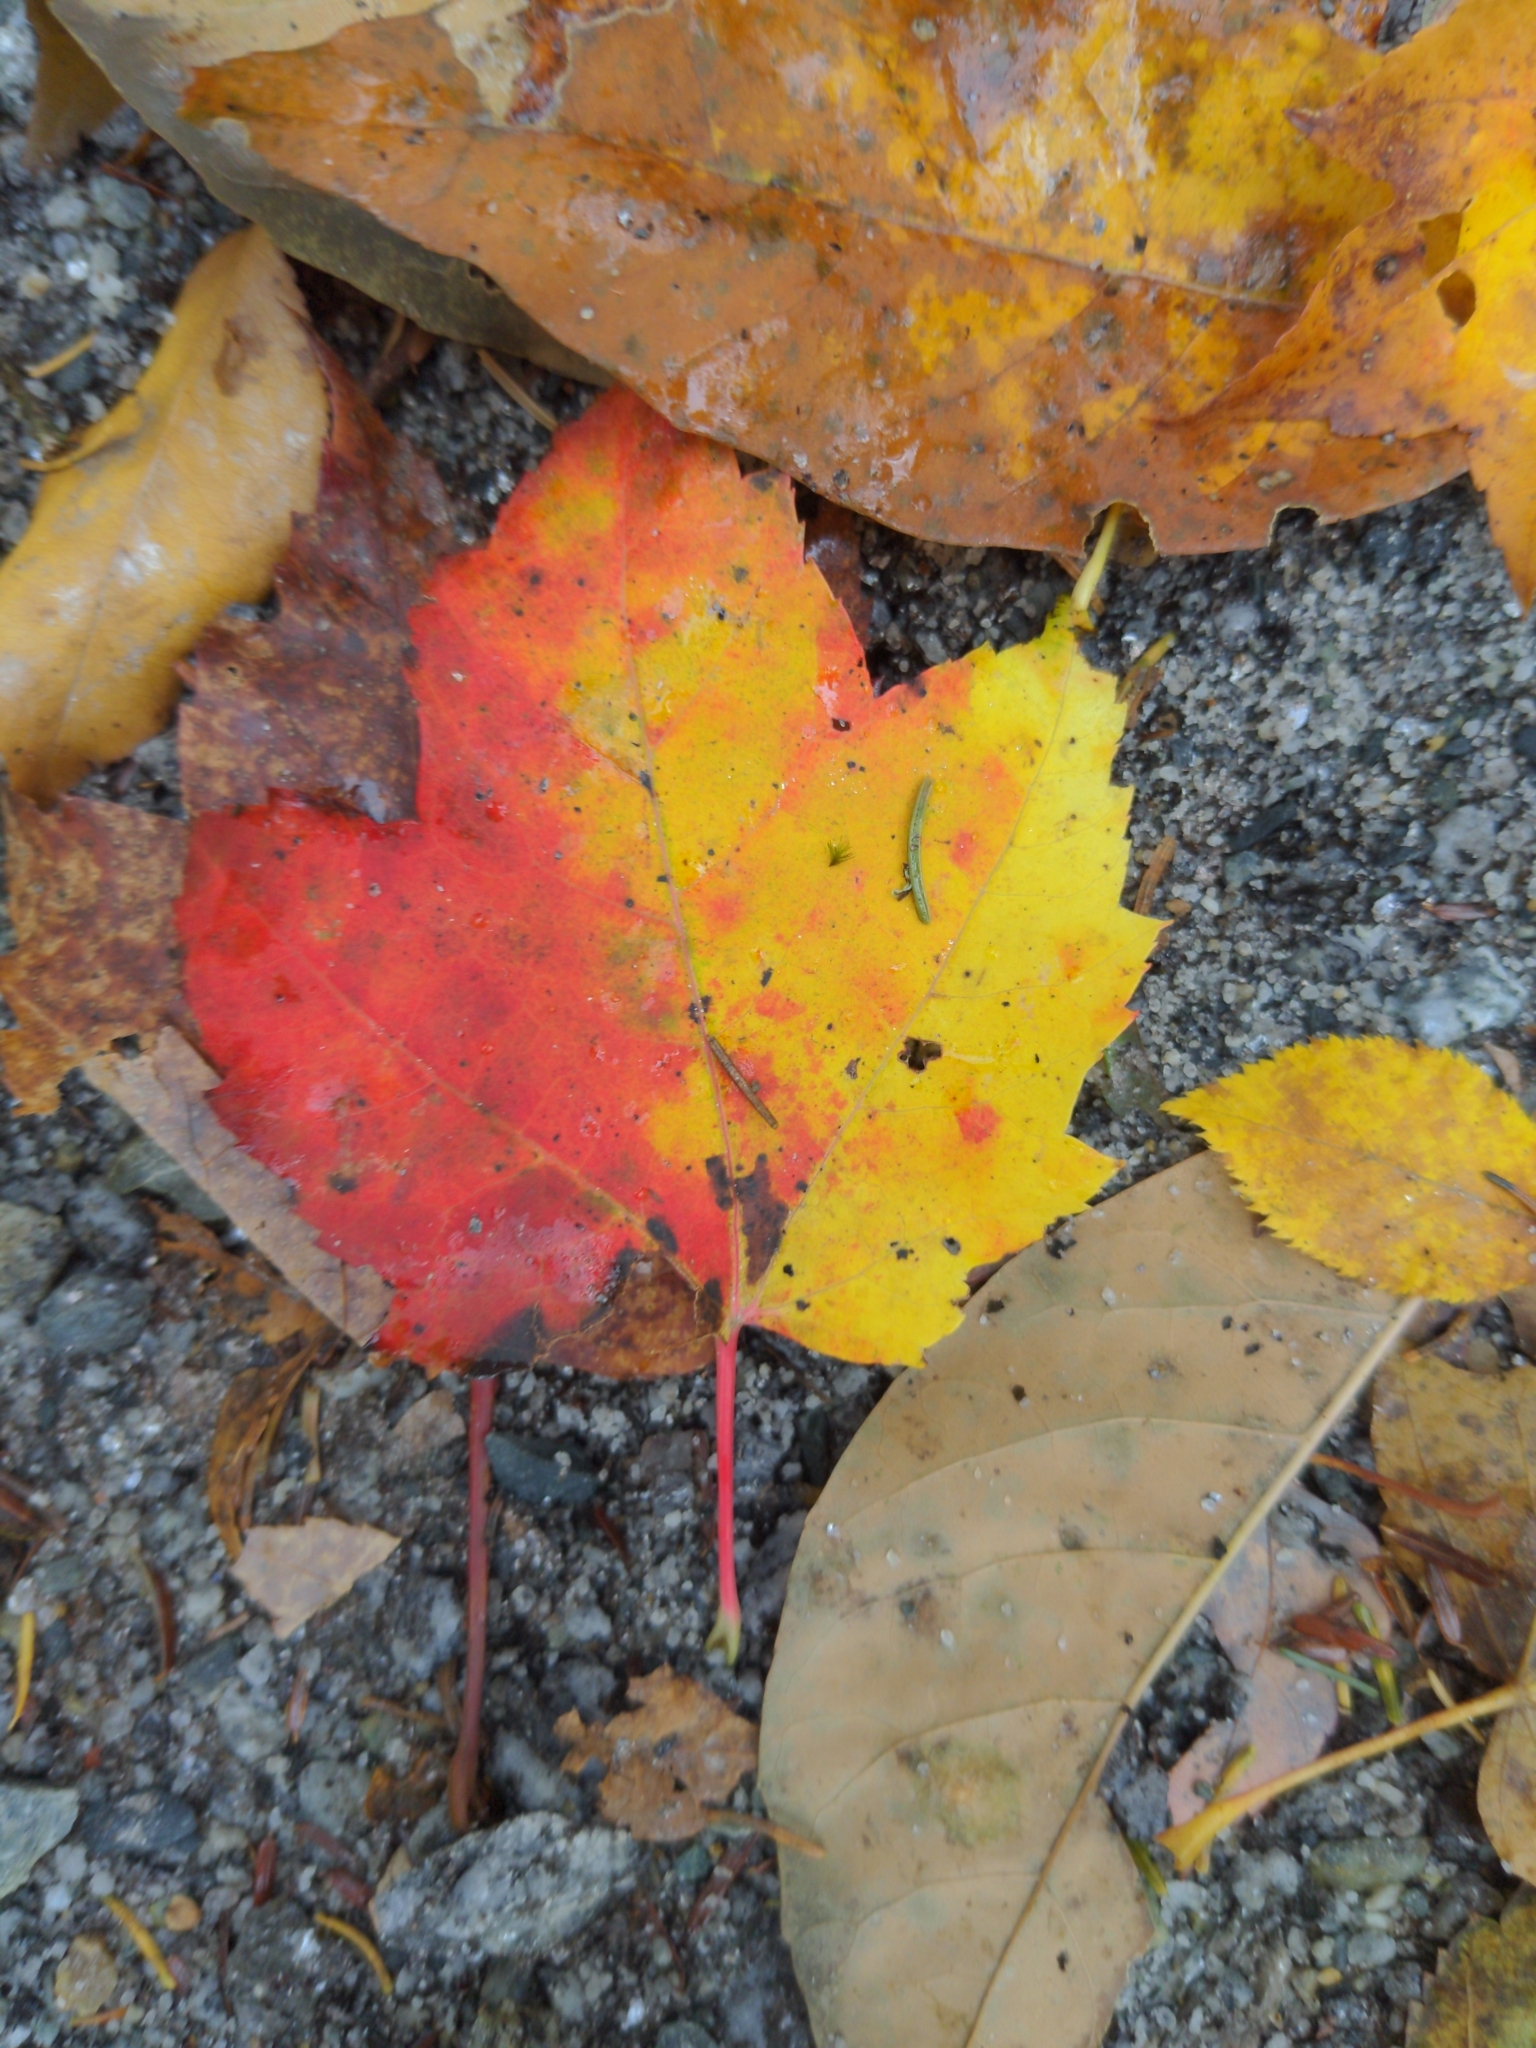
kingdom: Plantae
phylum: Tracheophyta
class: Magnoliopsida
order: Sapindales
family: Sapindaceae
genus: Acer
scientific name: Acer rubrum
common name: Red maple
